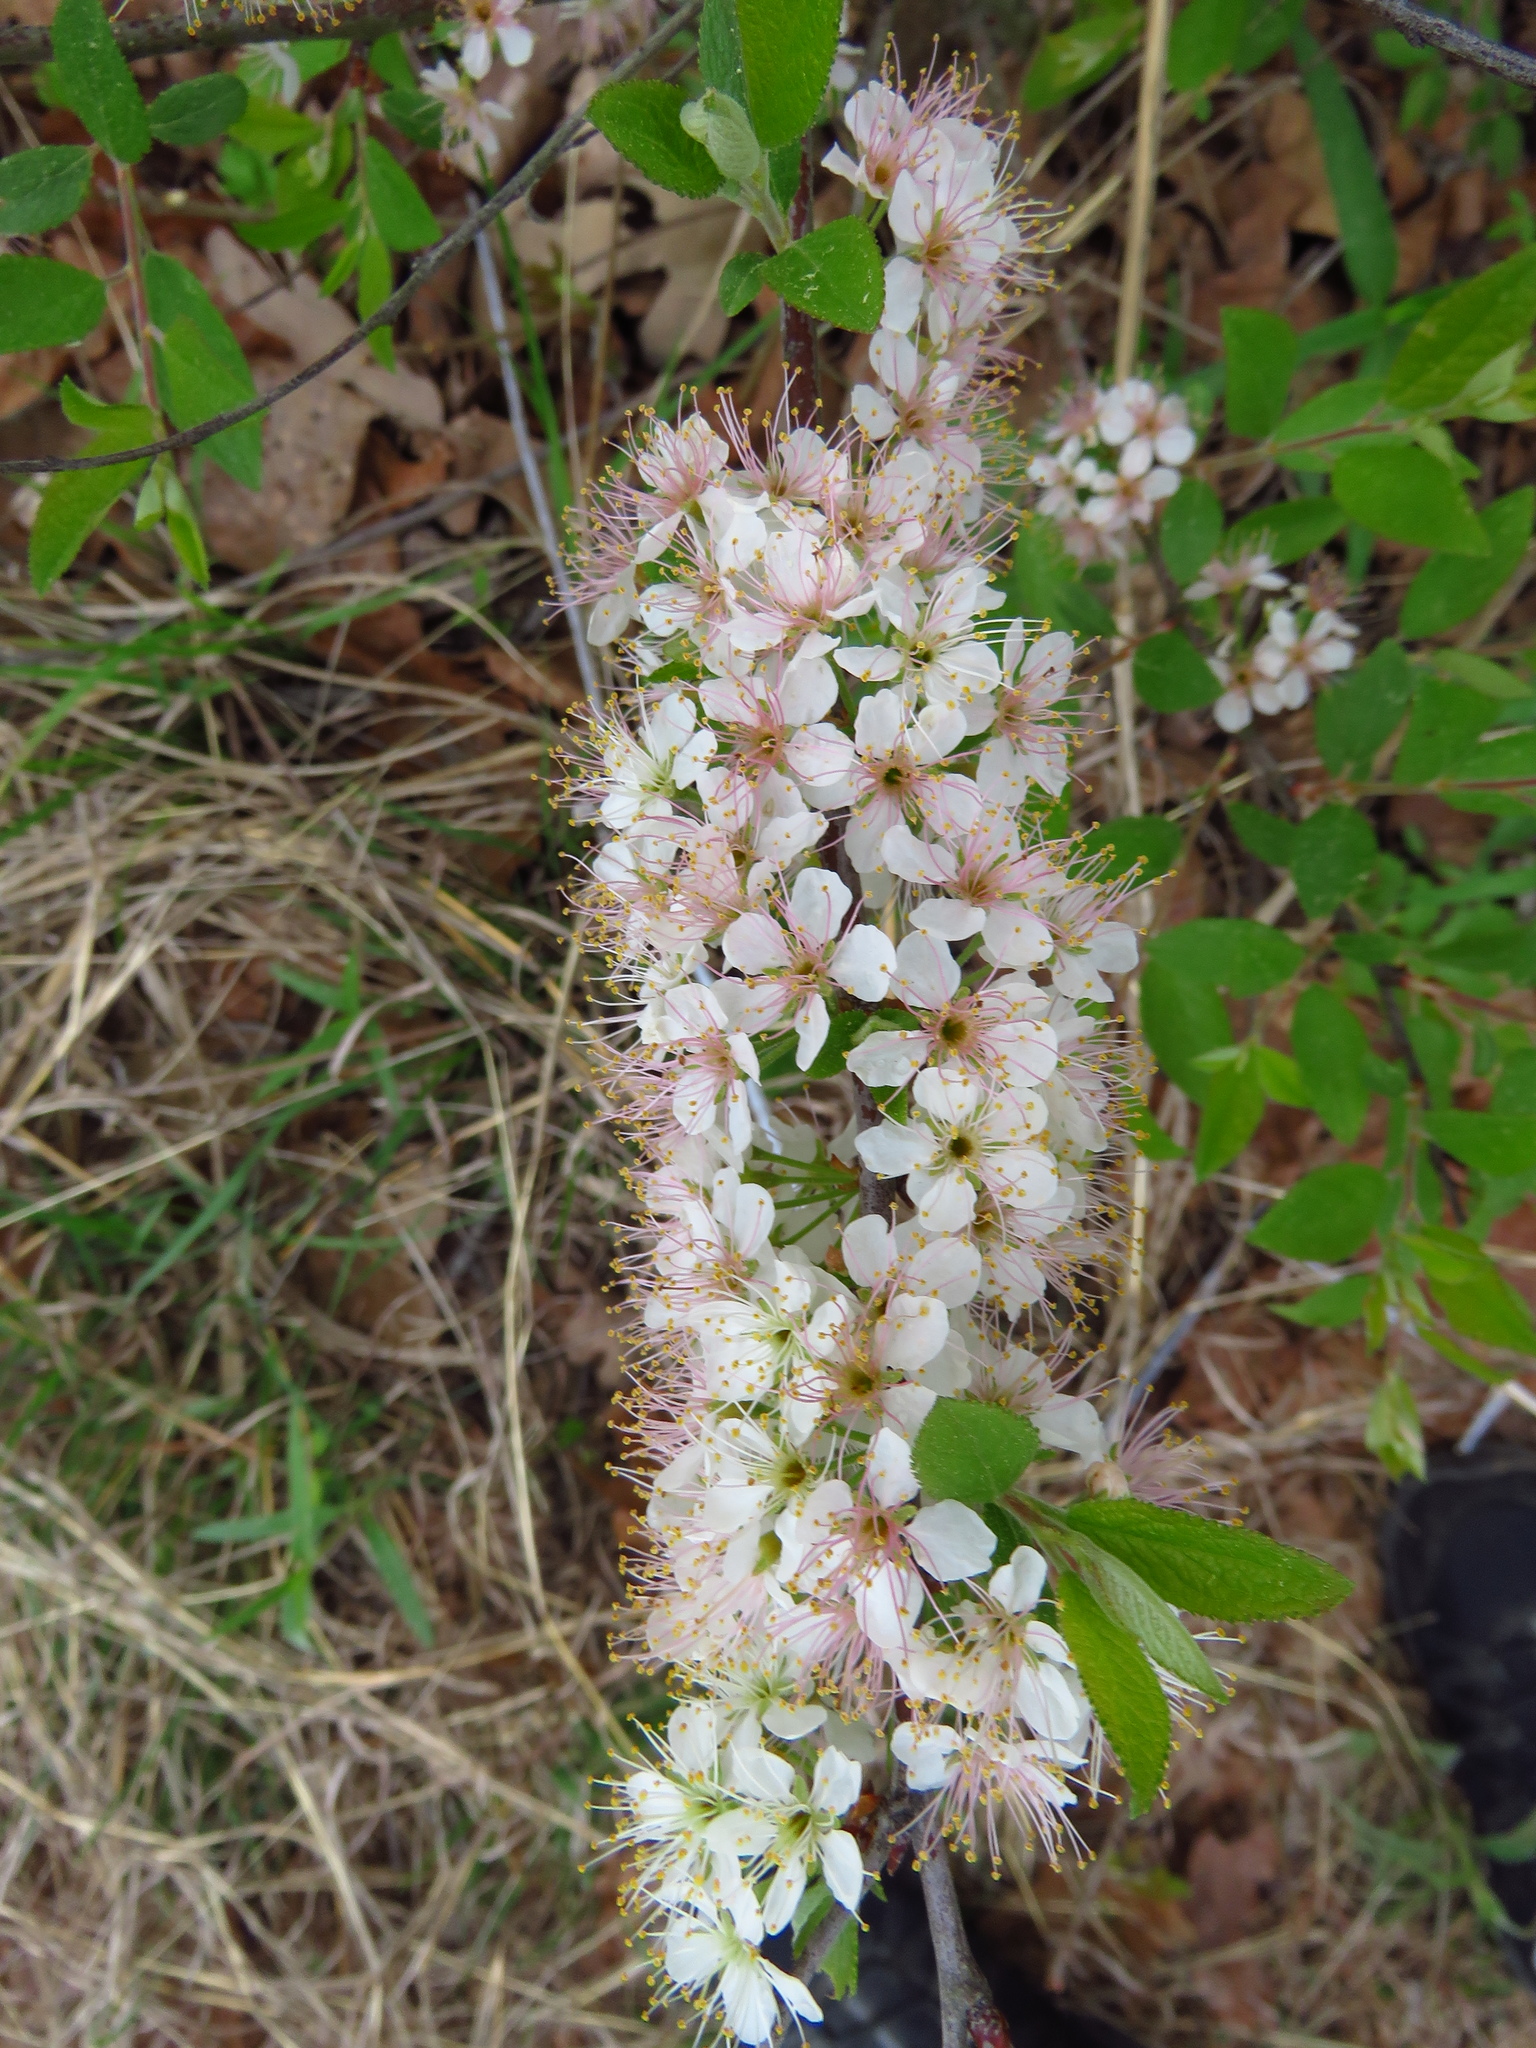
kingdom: Plantae
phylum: Tracheophyta
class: Magnoliopsida
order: Rosales
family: Rosaceae
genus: Prunus
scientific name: Prunus angustifolia
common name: Cherokee plum
